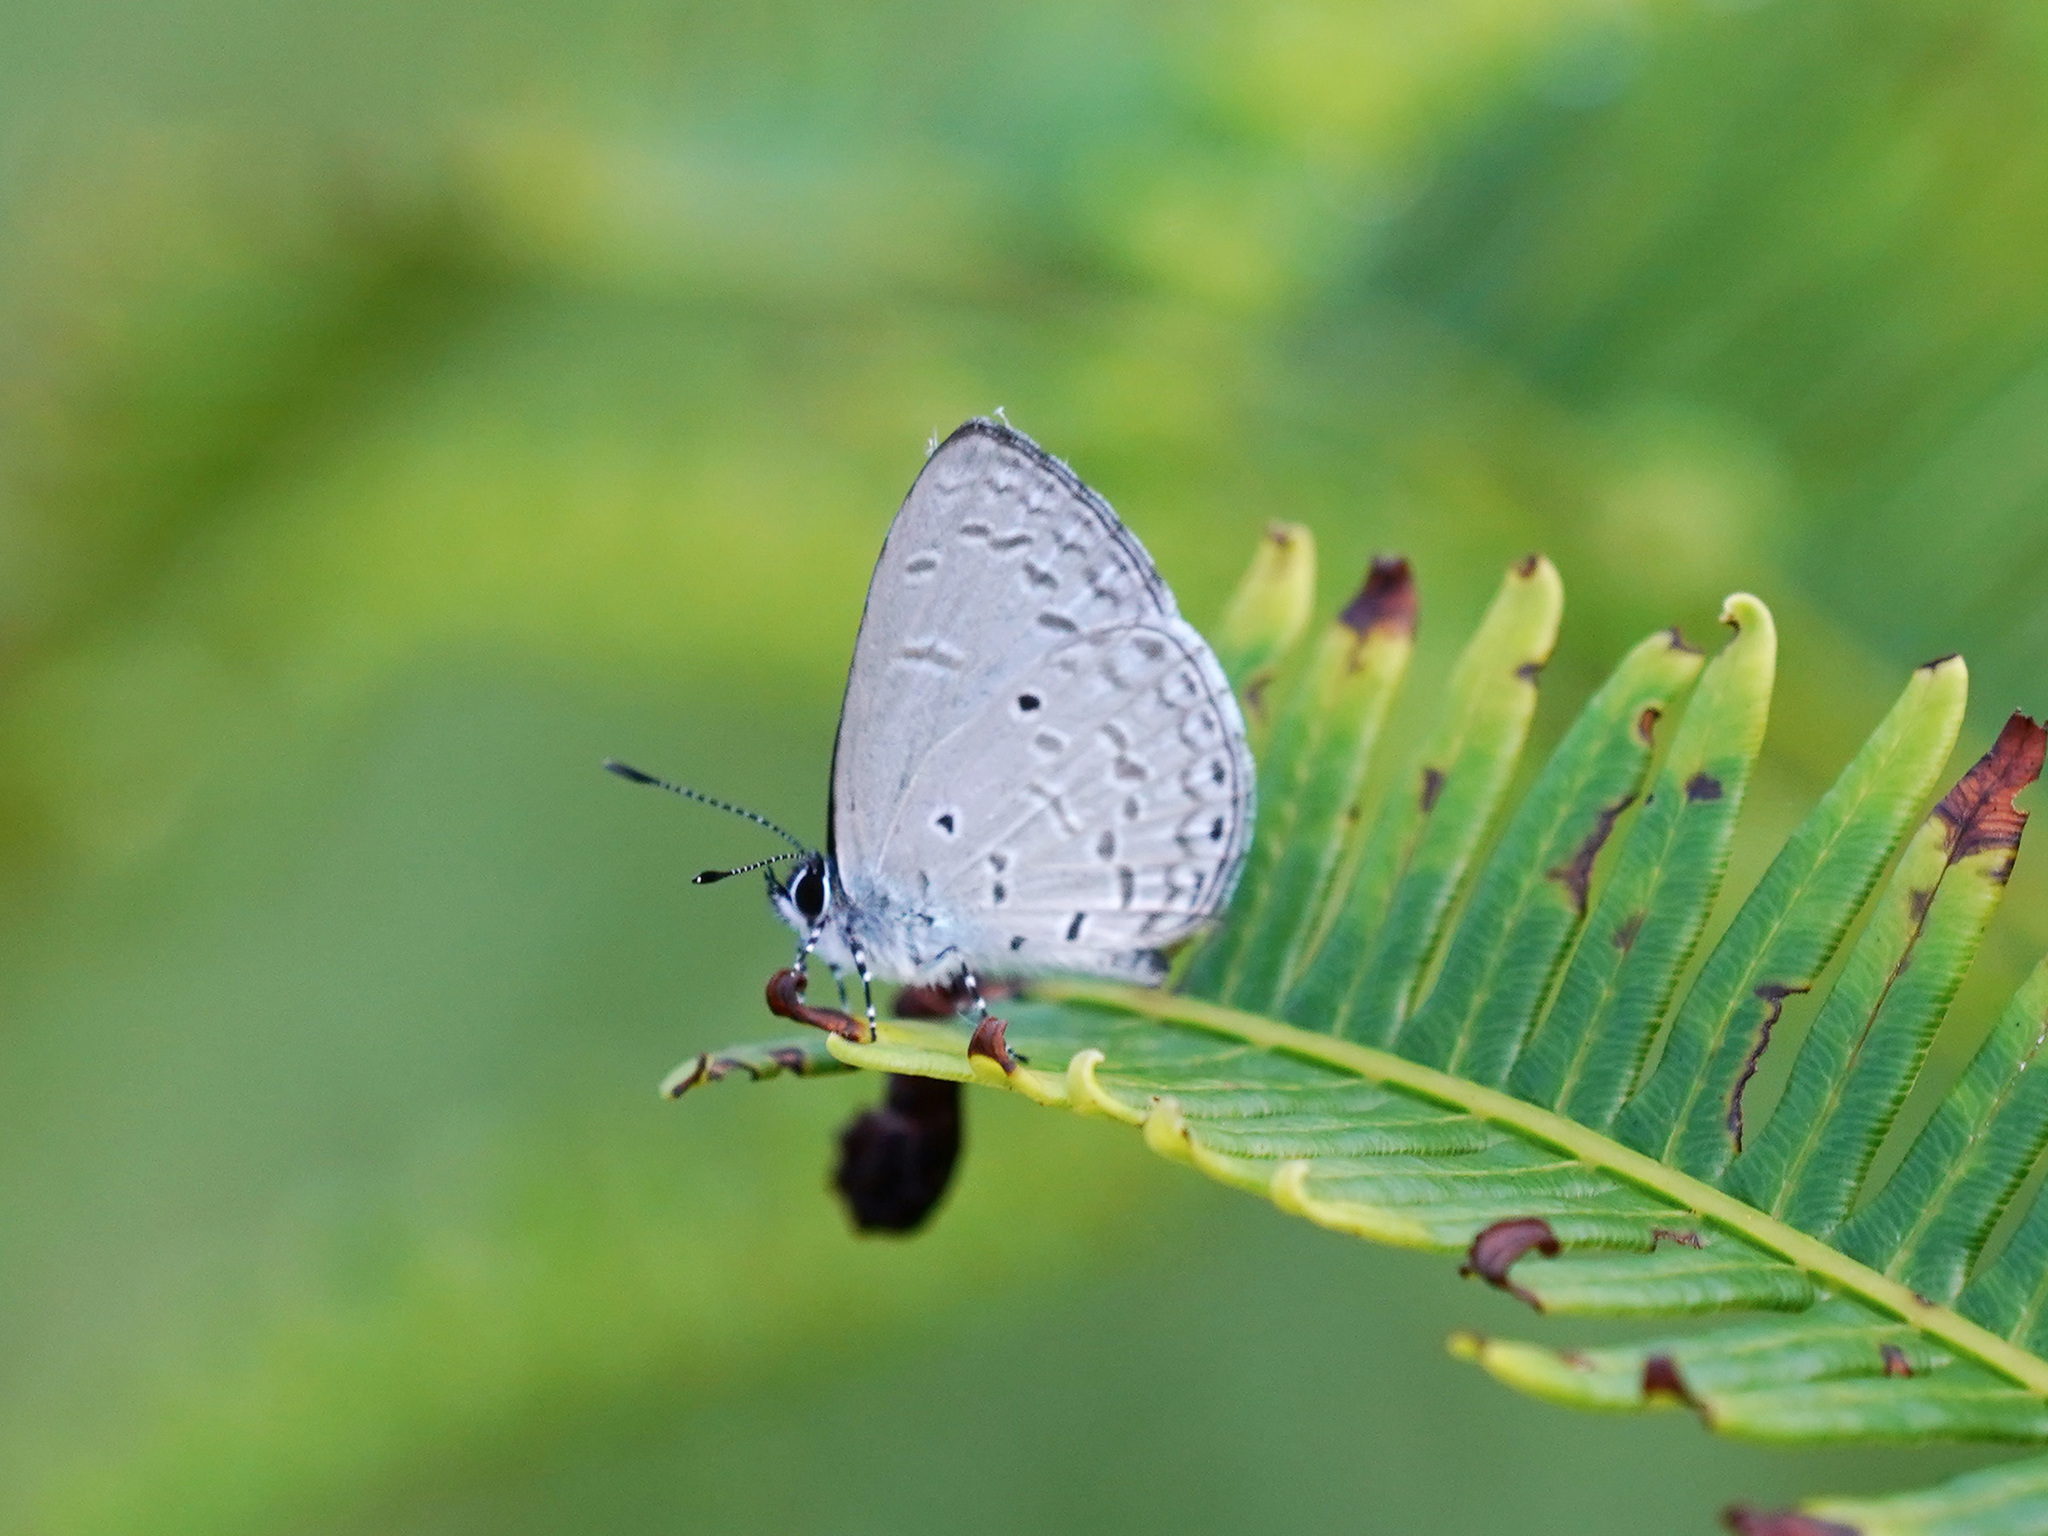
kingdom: Animalia
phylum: Arthropoda
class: Insecta
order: Lepidoptera
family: Lycaenidae
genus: Monodontides
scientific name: Monodontides
